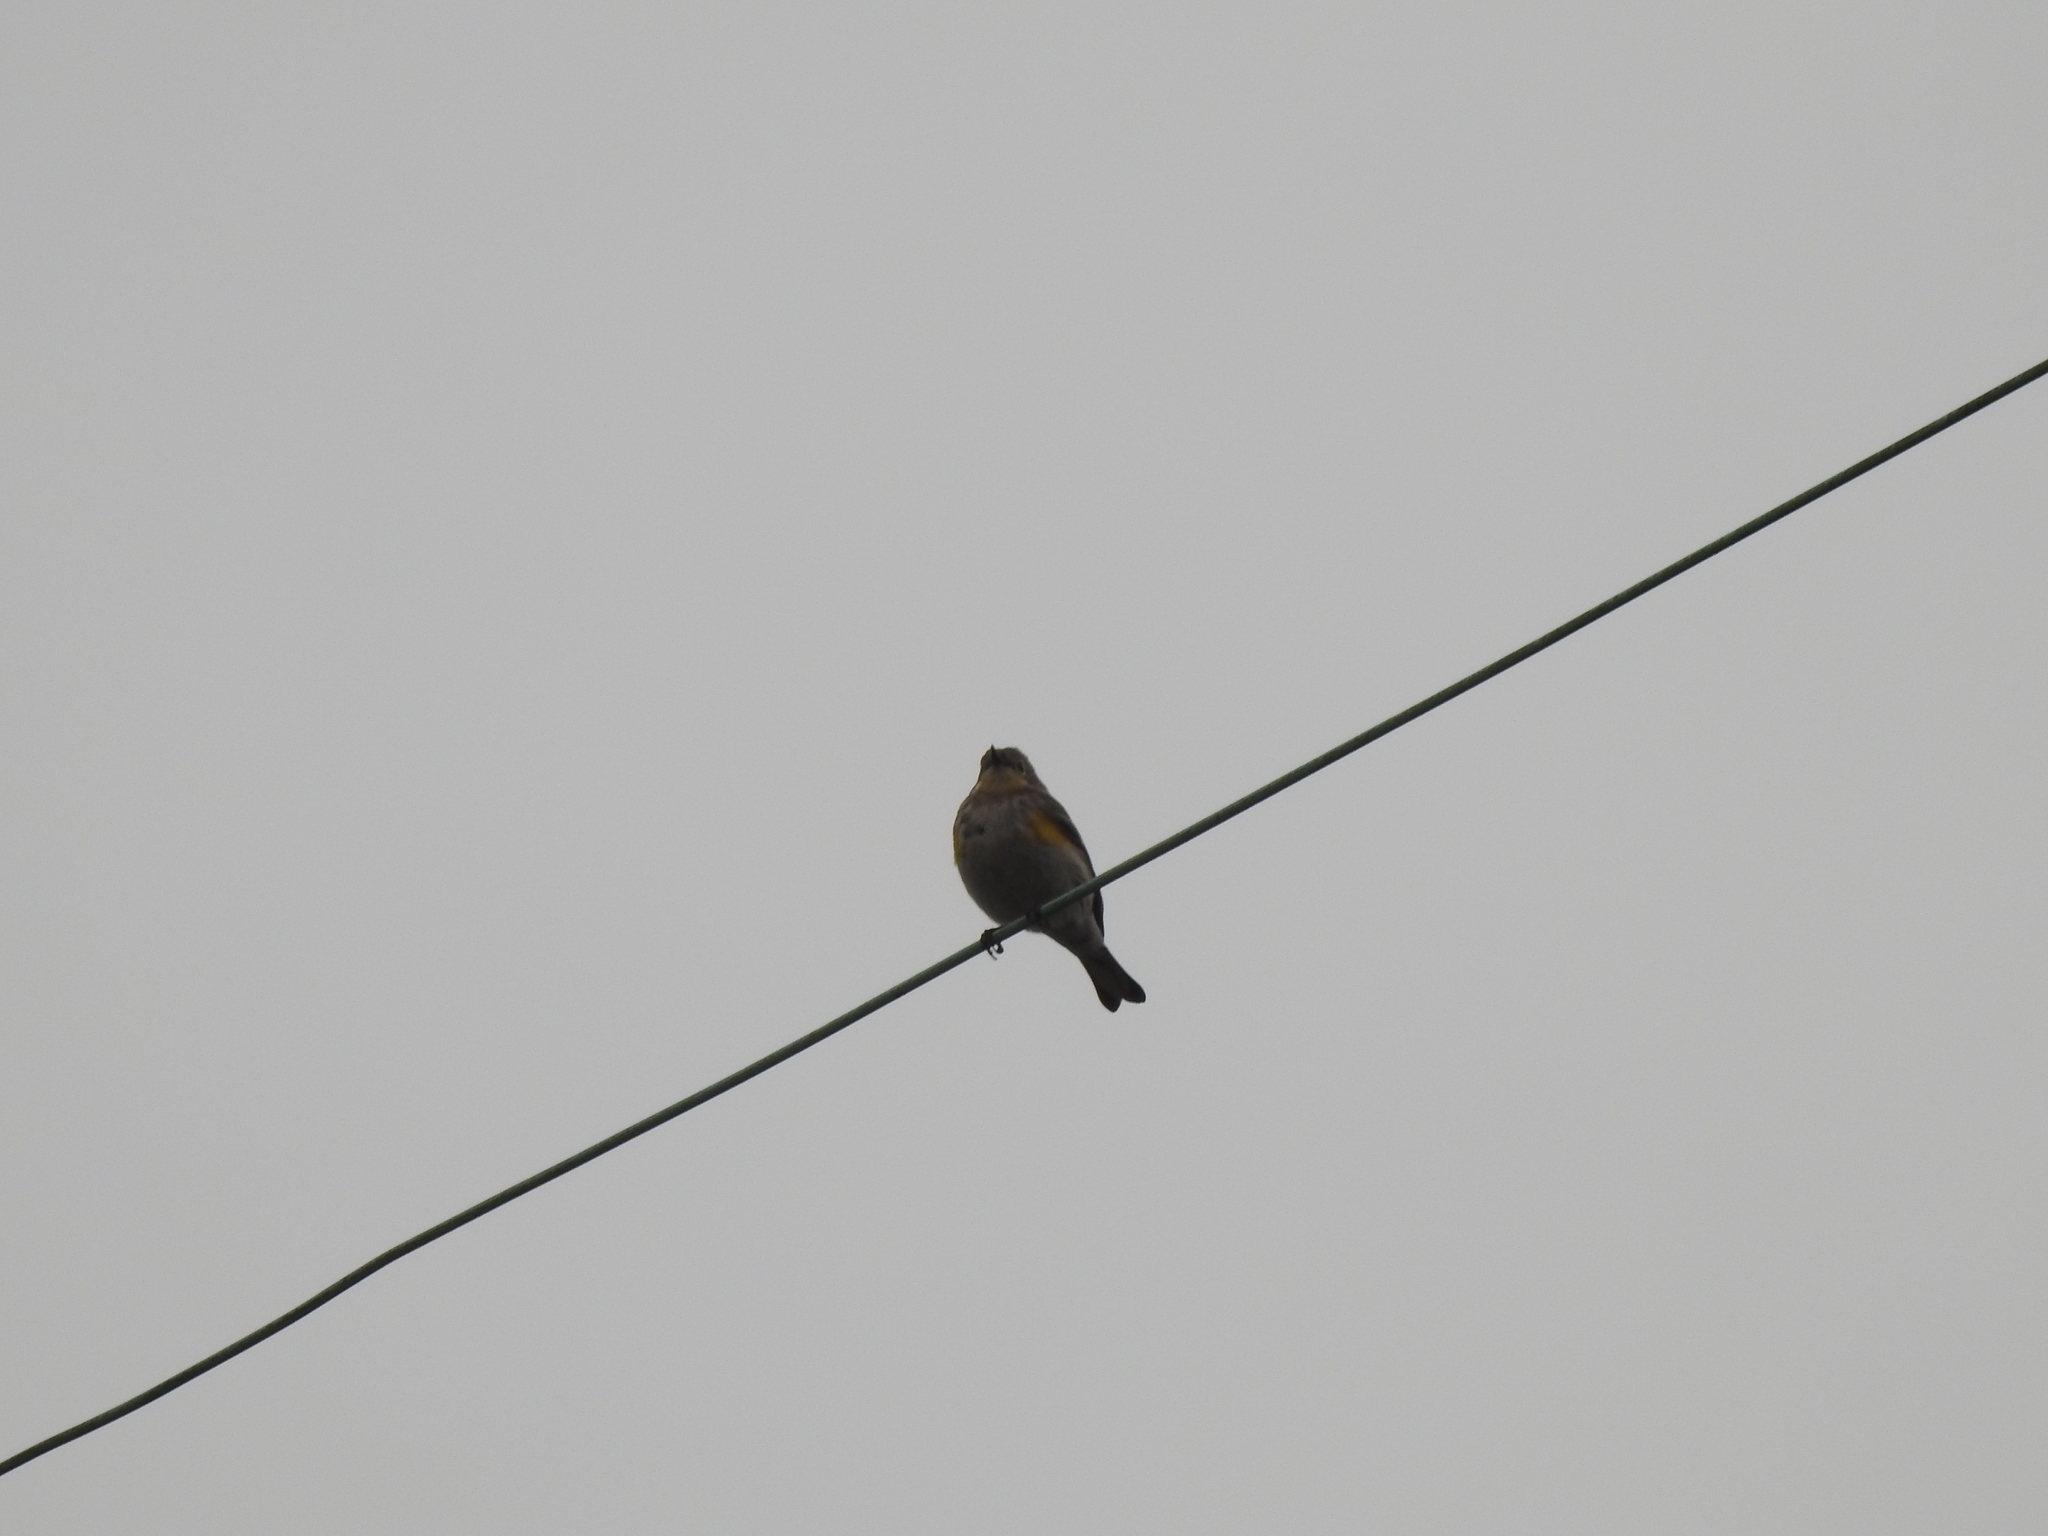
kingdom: Animalia
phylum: Chordata
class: Aves
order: Passeriformes
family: Parulidae
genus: Setophaga
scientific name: Setophaga auduboni
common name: Audubon's warbler
